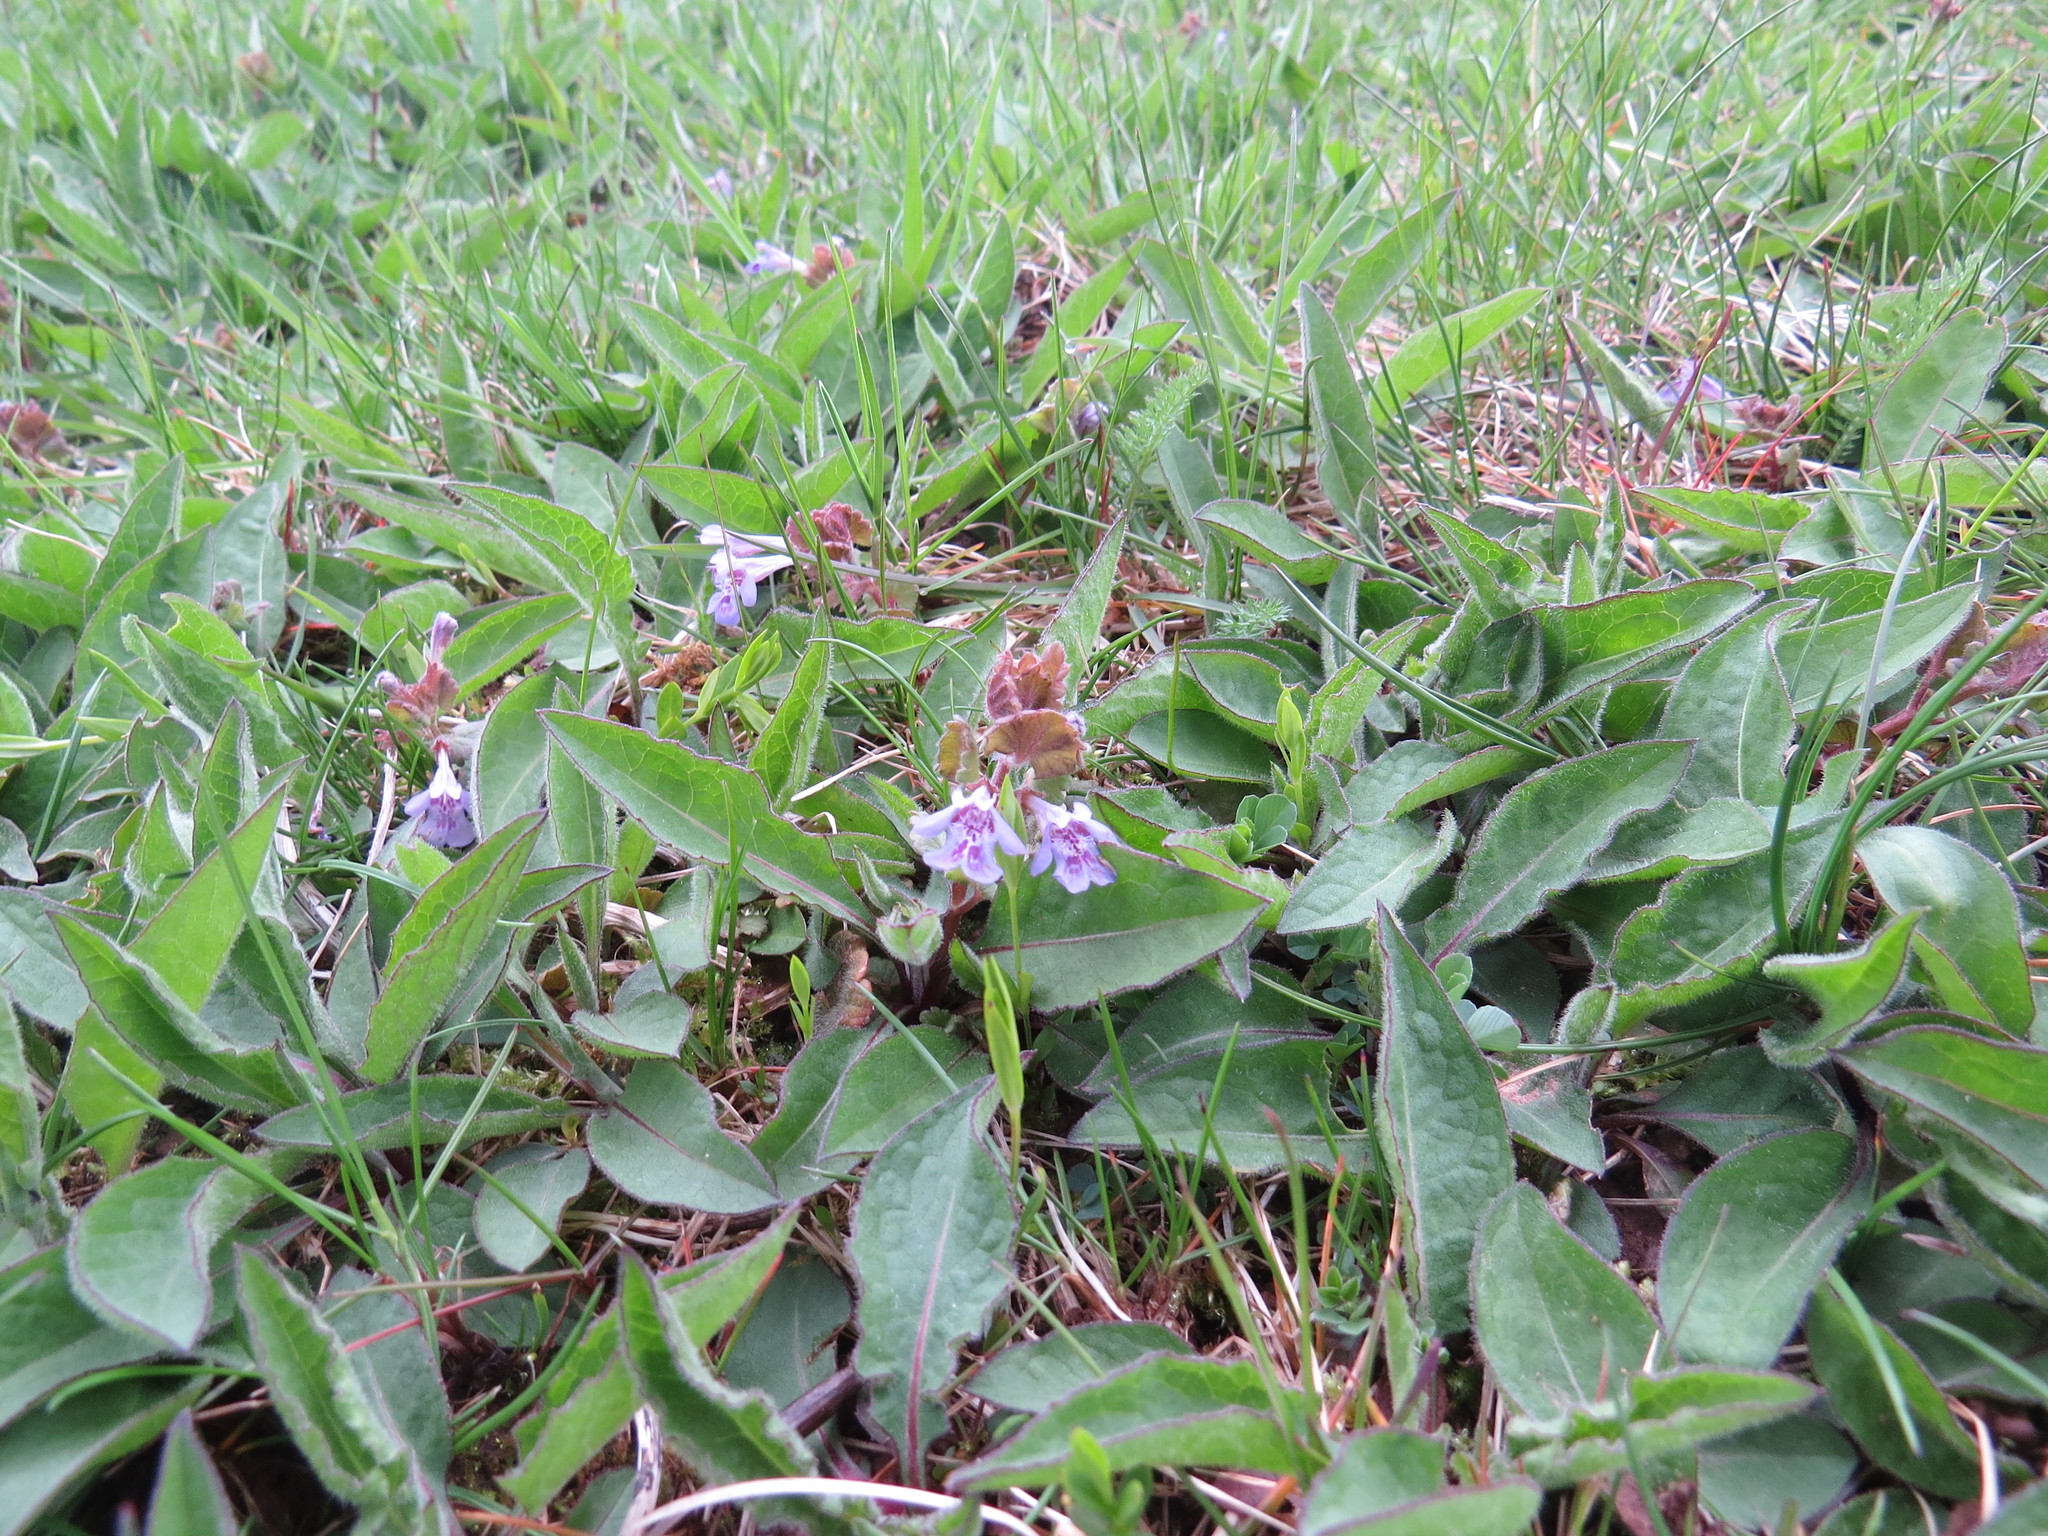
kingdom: Plantae
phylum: Tracheophyta
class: Magnoliopsida
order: Lamiales
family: Lamiaceae
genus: Glechoma
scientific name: Glechoma hederacea
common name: Ground ivy
